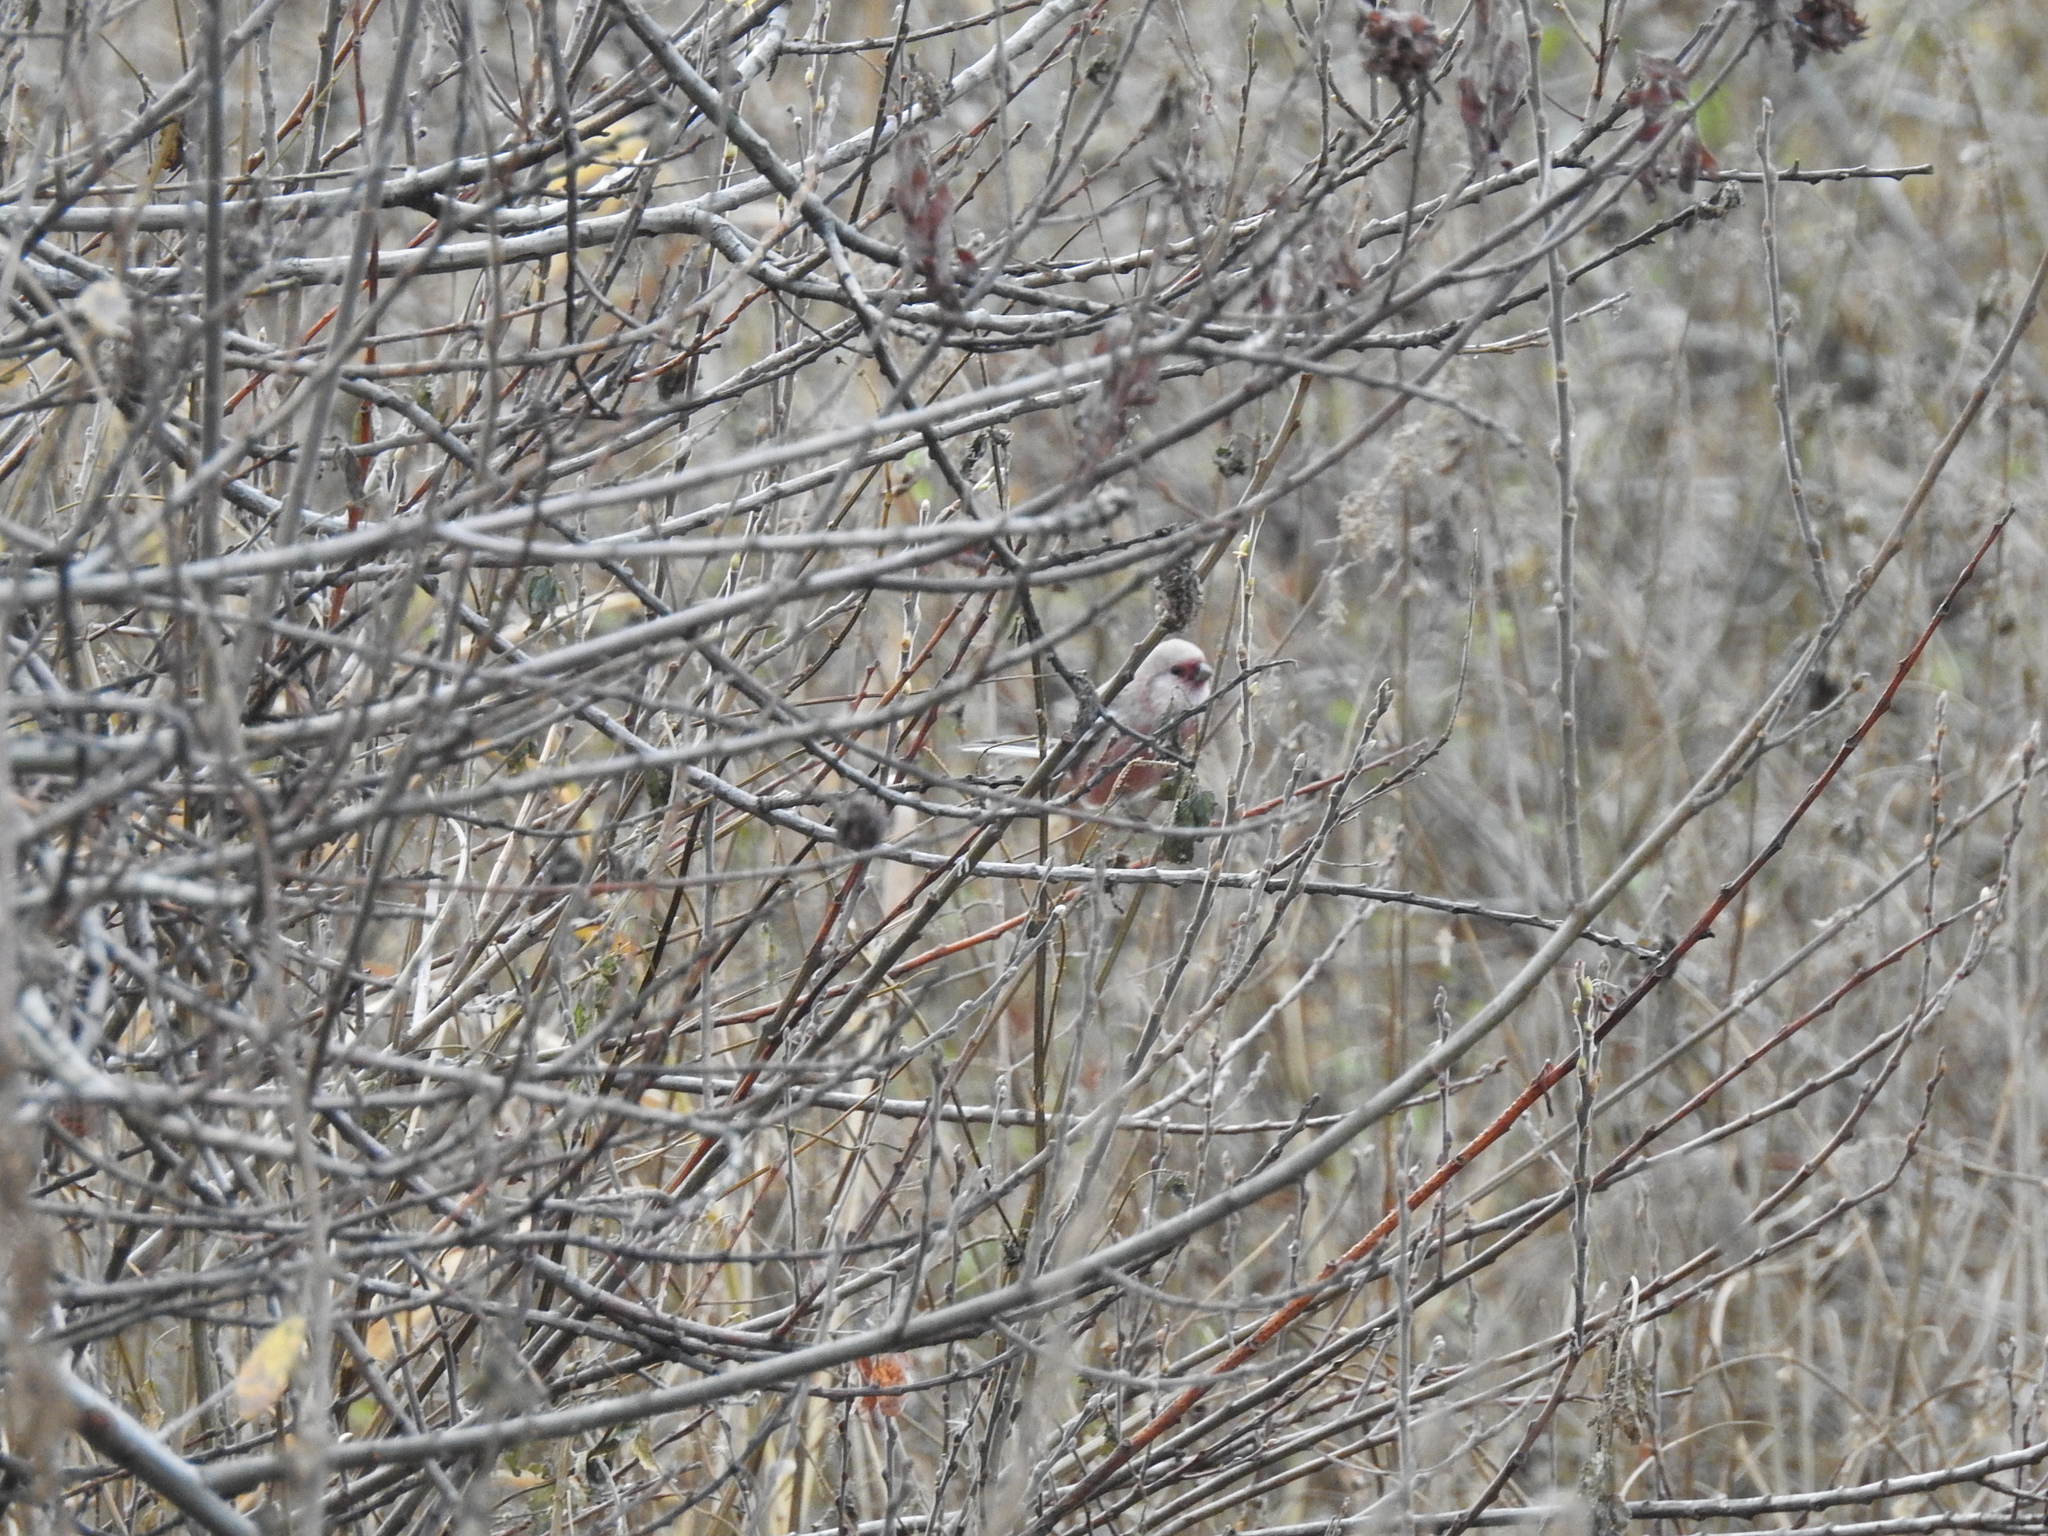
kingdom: Animalia
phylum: Chordata
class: Aves
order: Passeriformes
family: Fringillidae
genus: Carpodacus
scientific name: Carpodacus sibiricus
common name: Long-tailed rosefinch
